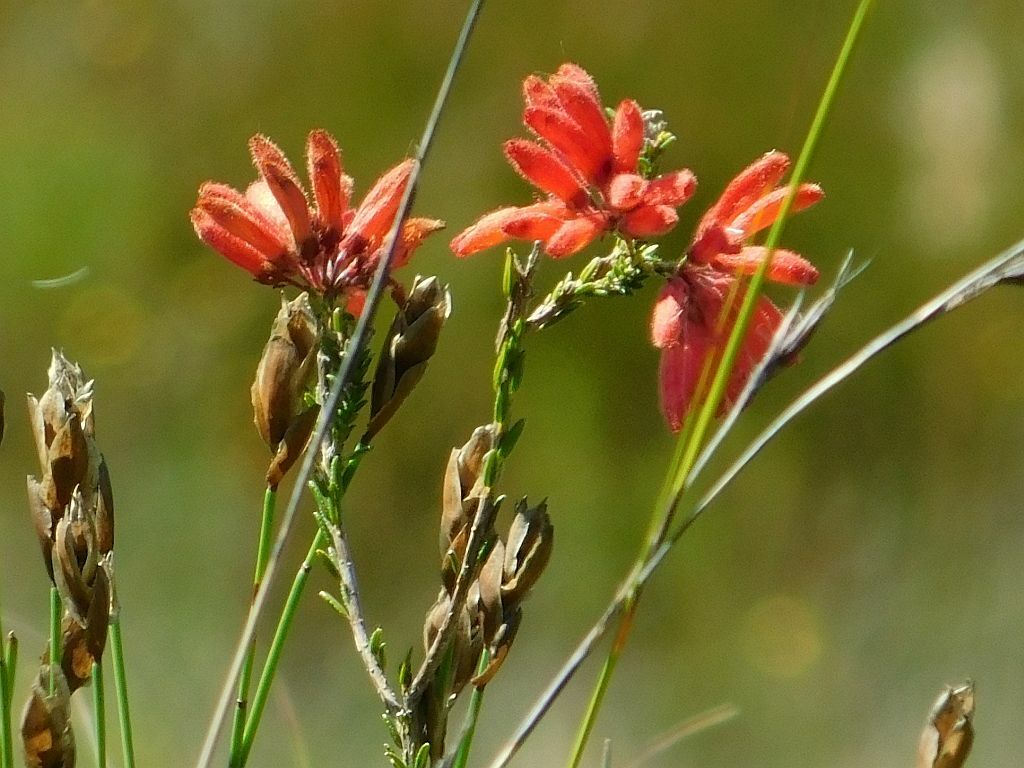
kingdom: Plantae
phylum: Tracheophyta
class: Magnoliopsida
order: Ericales
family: Ericaceae
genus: Erica
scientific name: Erica cerinthoides
